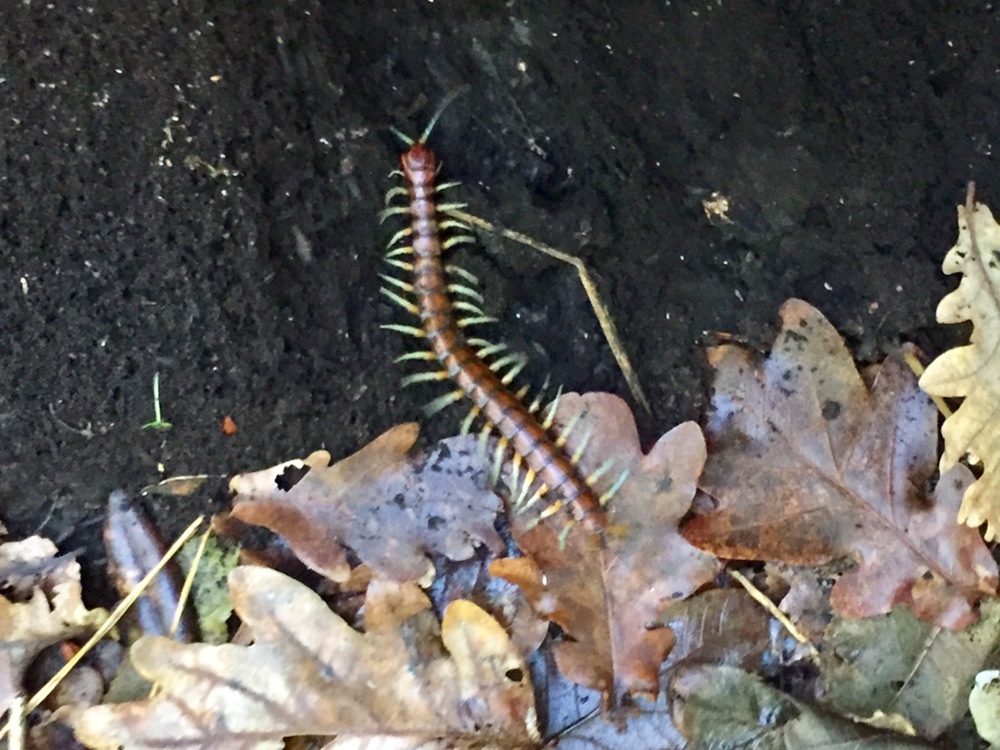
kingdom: Animalia
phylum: Arthropoda
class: Chilopoda
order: Scolopendromorpha
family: Scolopendridae
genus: Cormocephalus
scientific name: Cormocephalus rubriceps
